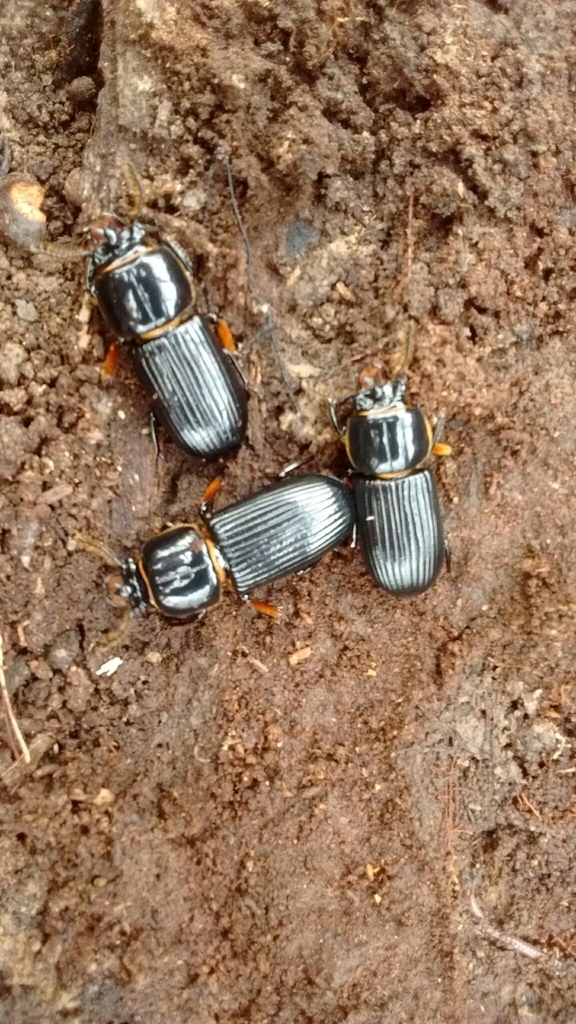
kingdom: Animalia
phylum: Arthropoda
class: Insecta
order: Coleoptera
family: Passalidae
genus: Odontotaenius
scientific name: Odontotaenius disjunctus
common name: Patent leather beetle
